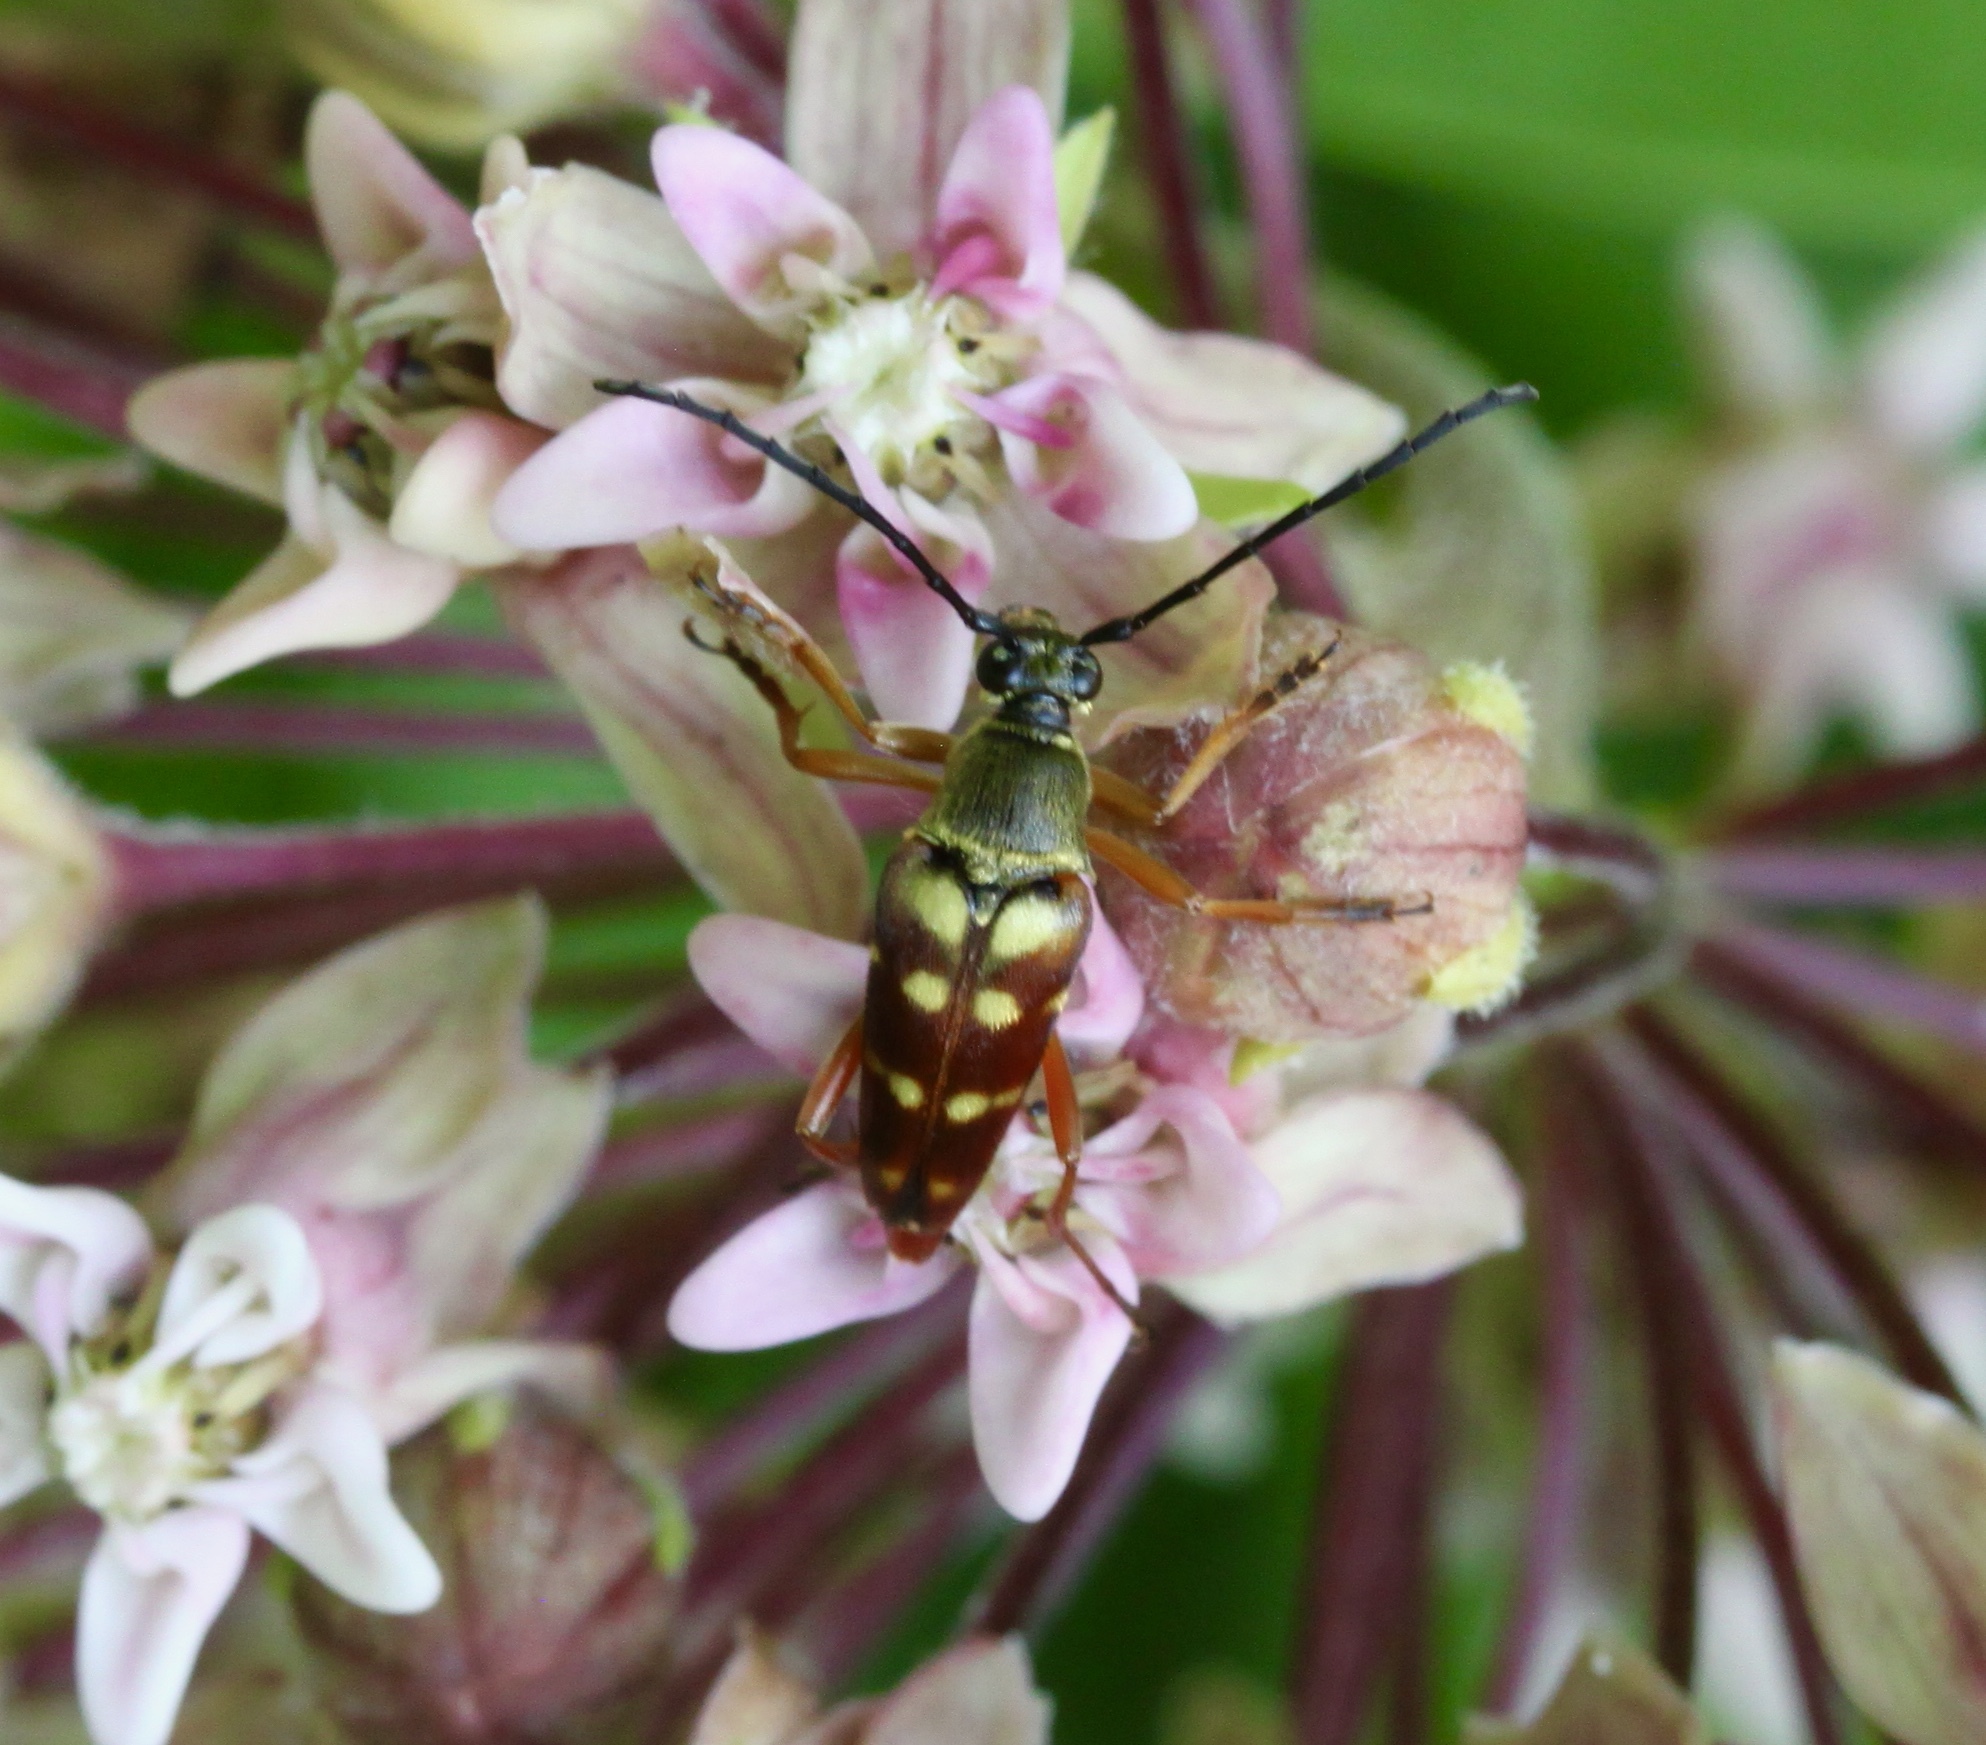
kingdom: Animalia
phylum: Arthropoda
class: Insecta
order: Coleoptera
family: Cerambycidae
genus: Typocerus
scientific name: Typocerus velutinus
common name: Banded longhorn beetle
